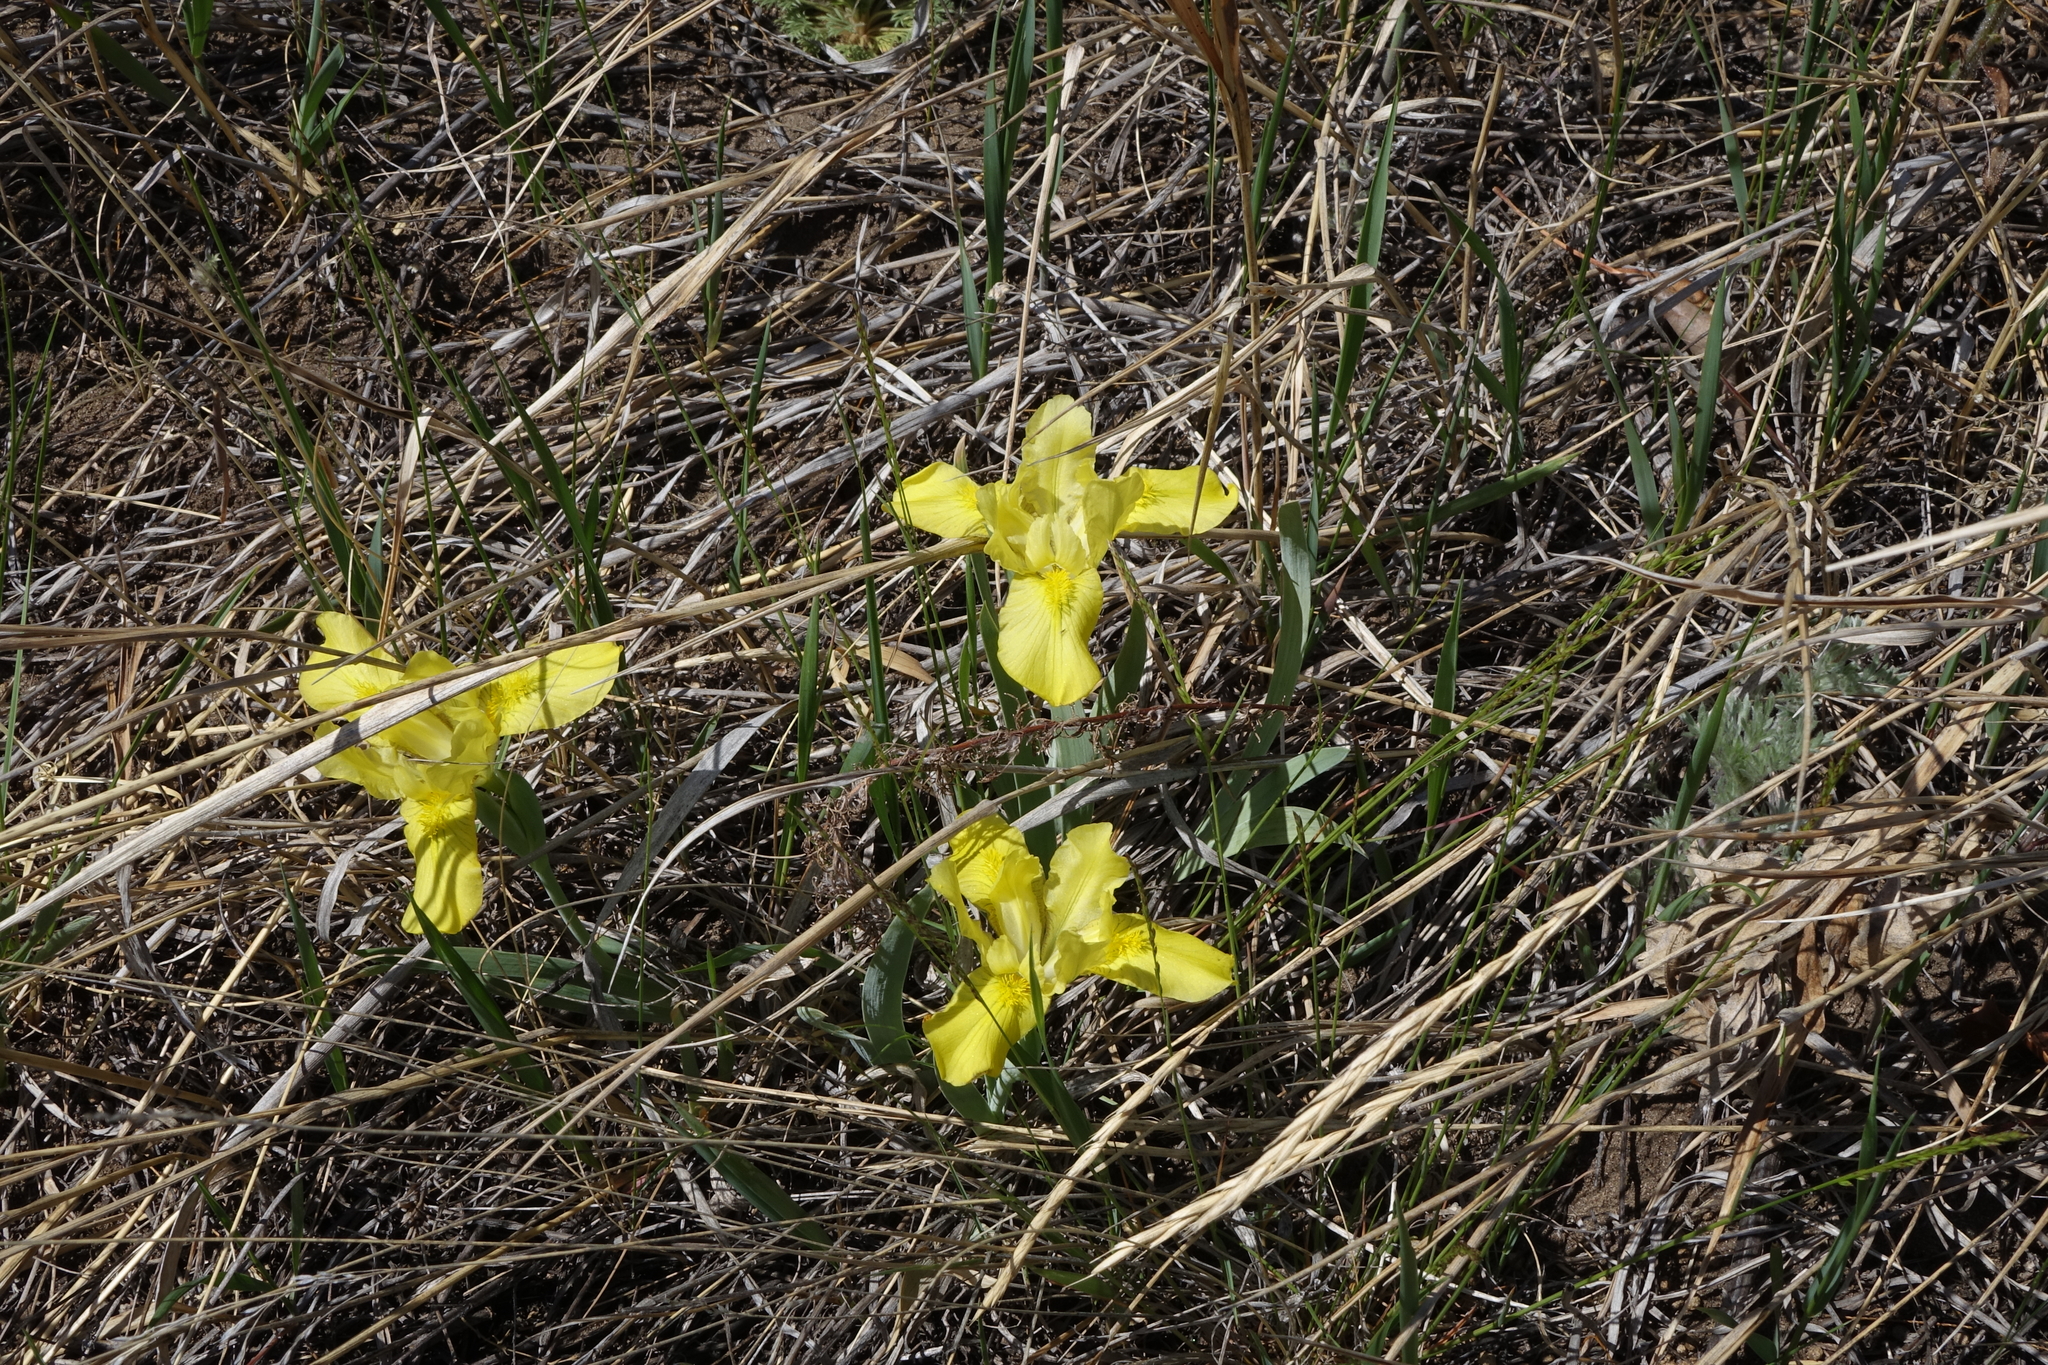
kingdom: Plantae
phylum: Tracheophyta
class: Liliopsida
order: Asparagales
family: Iridaceae
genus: Iris
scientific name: Iris humilis
